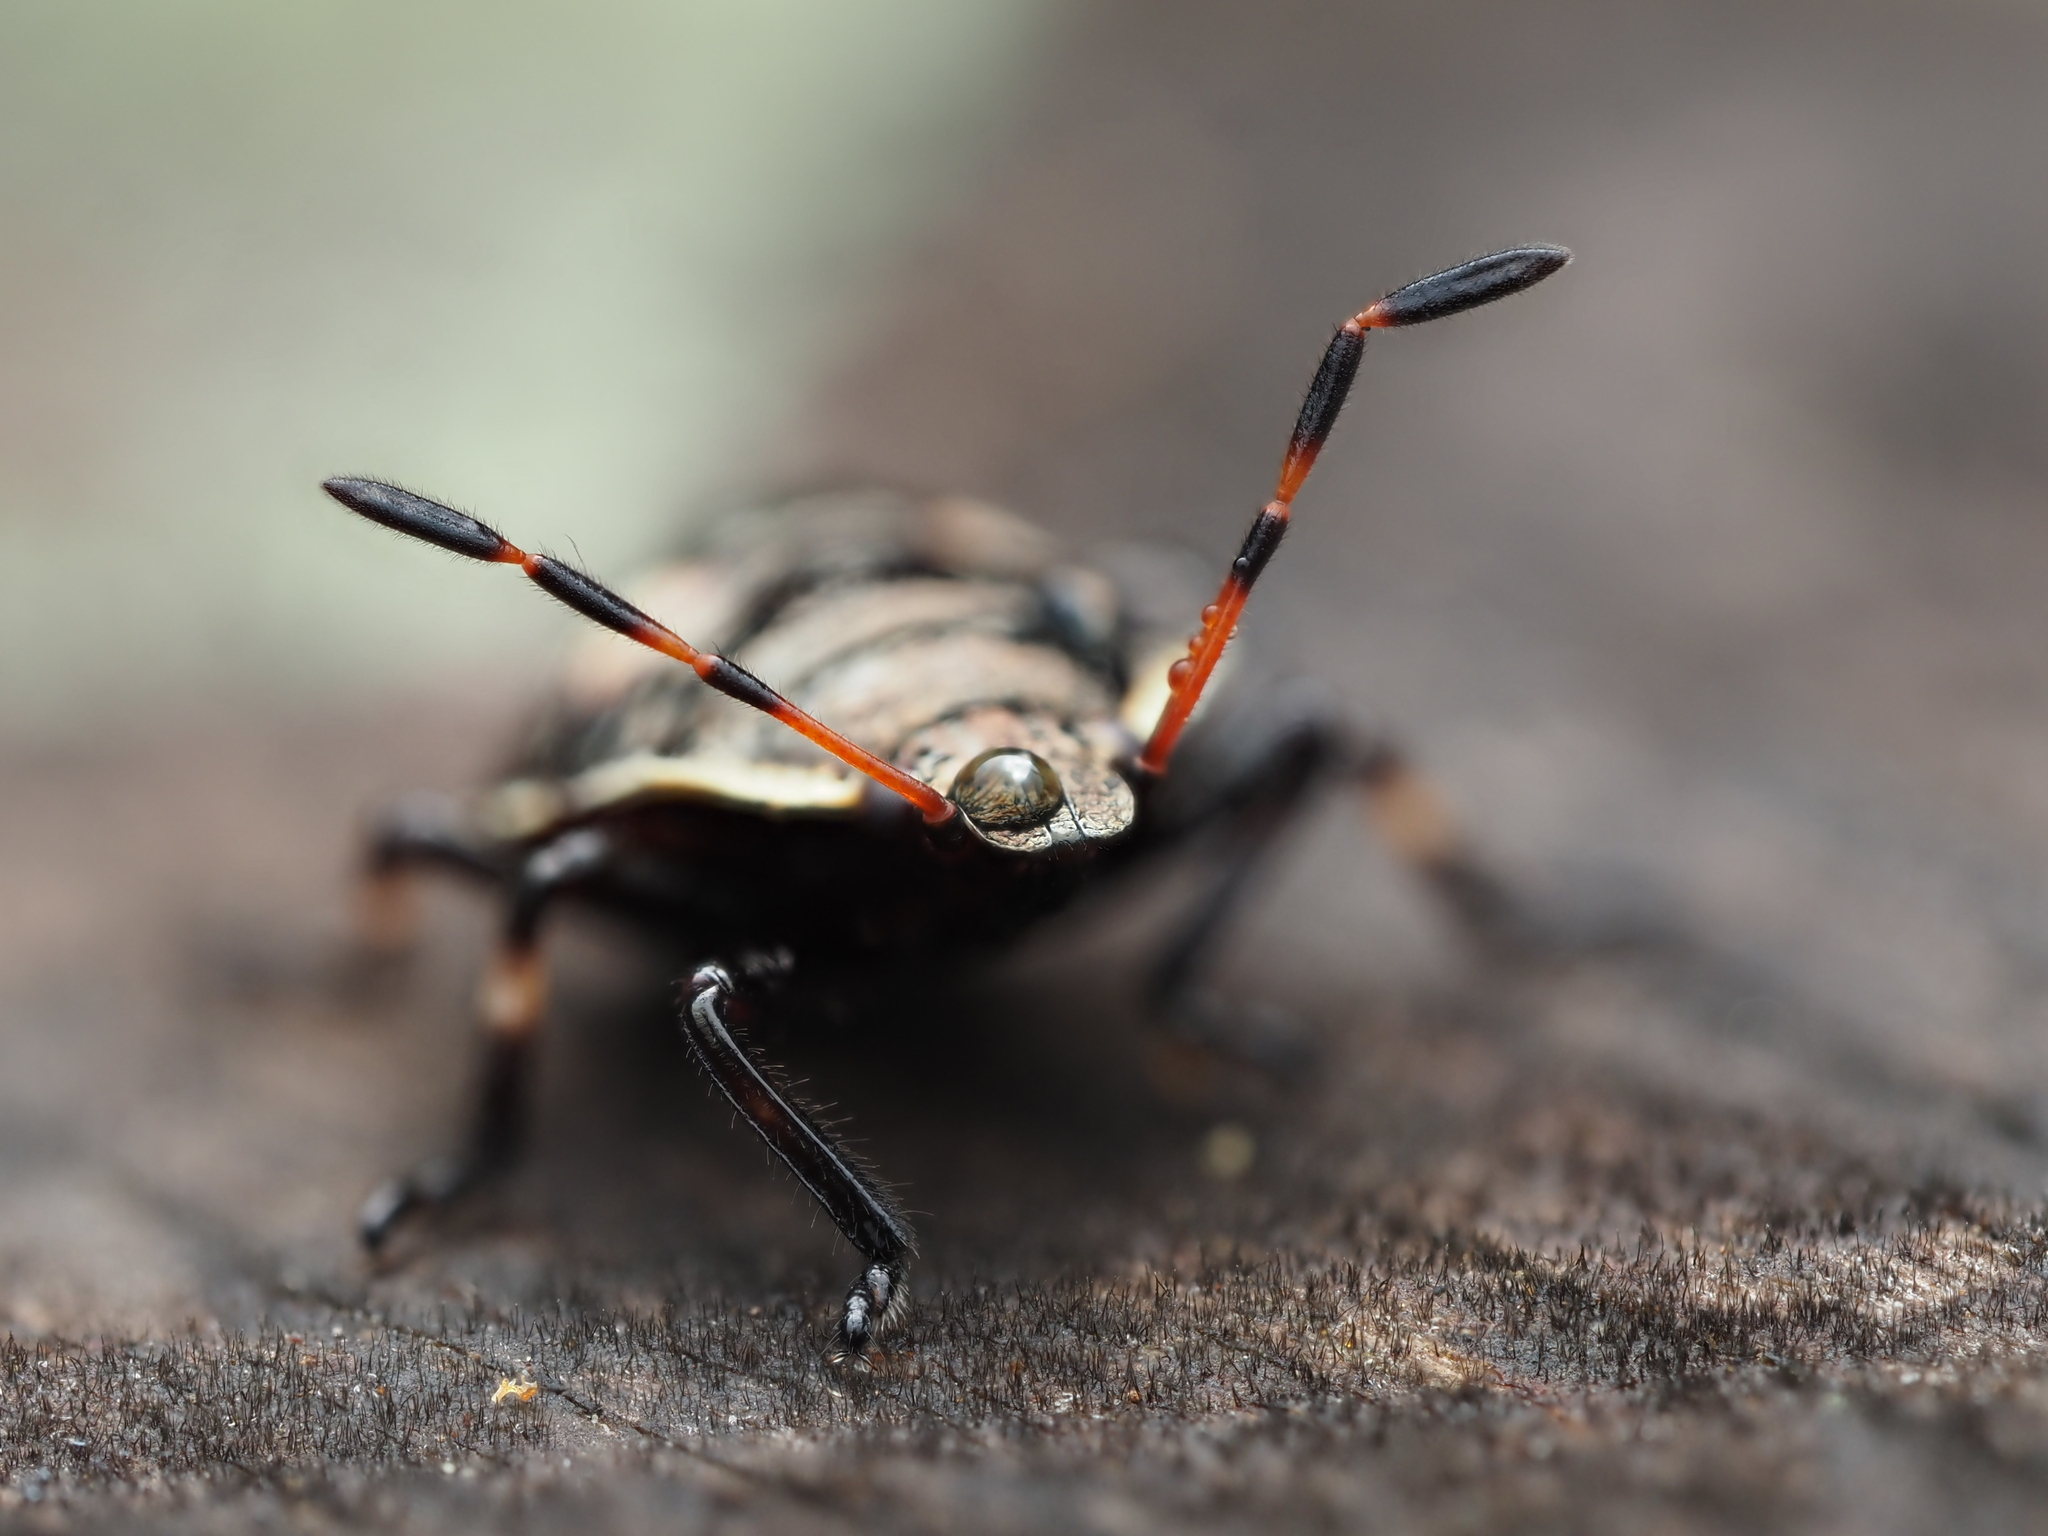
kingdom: Animalia
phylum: Arthropoda
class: Insecta
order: Hemiptera
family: Pentatomidae
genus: Cermatulus
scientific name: Cermatulus nasalis
